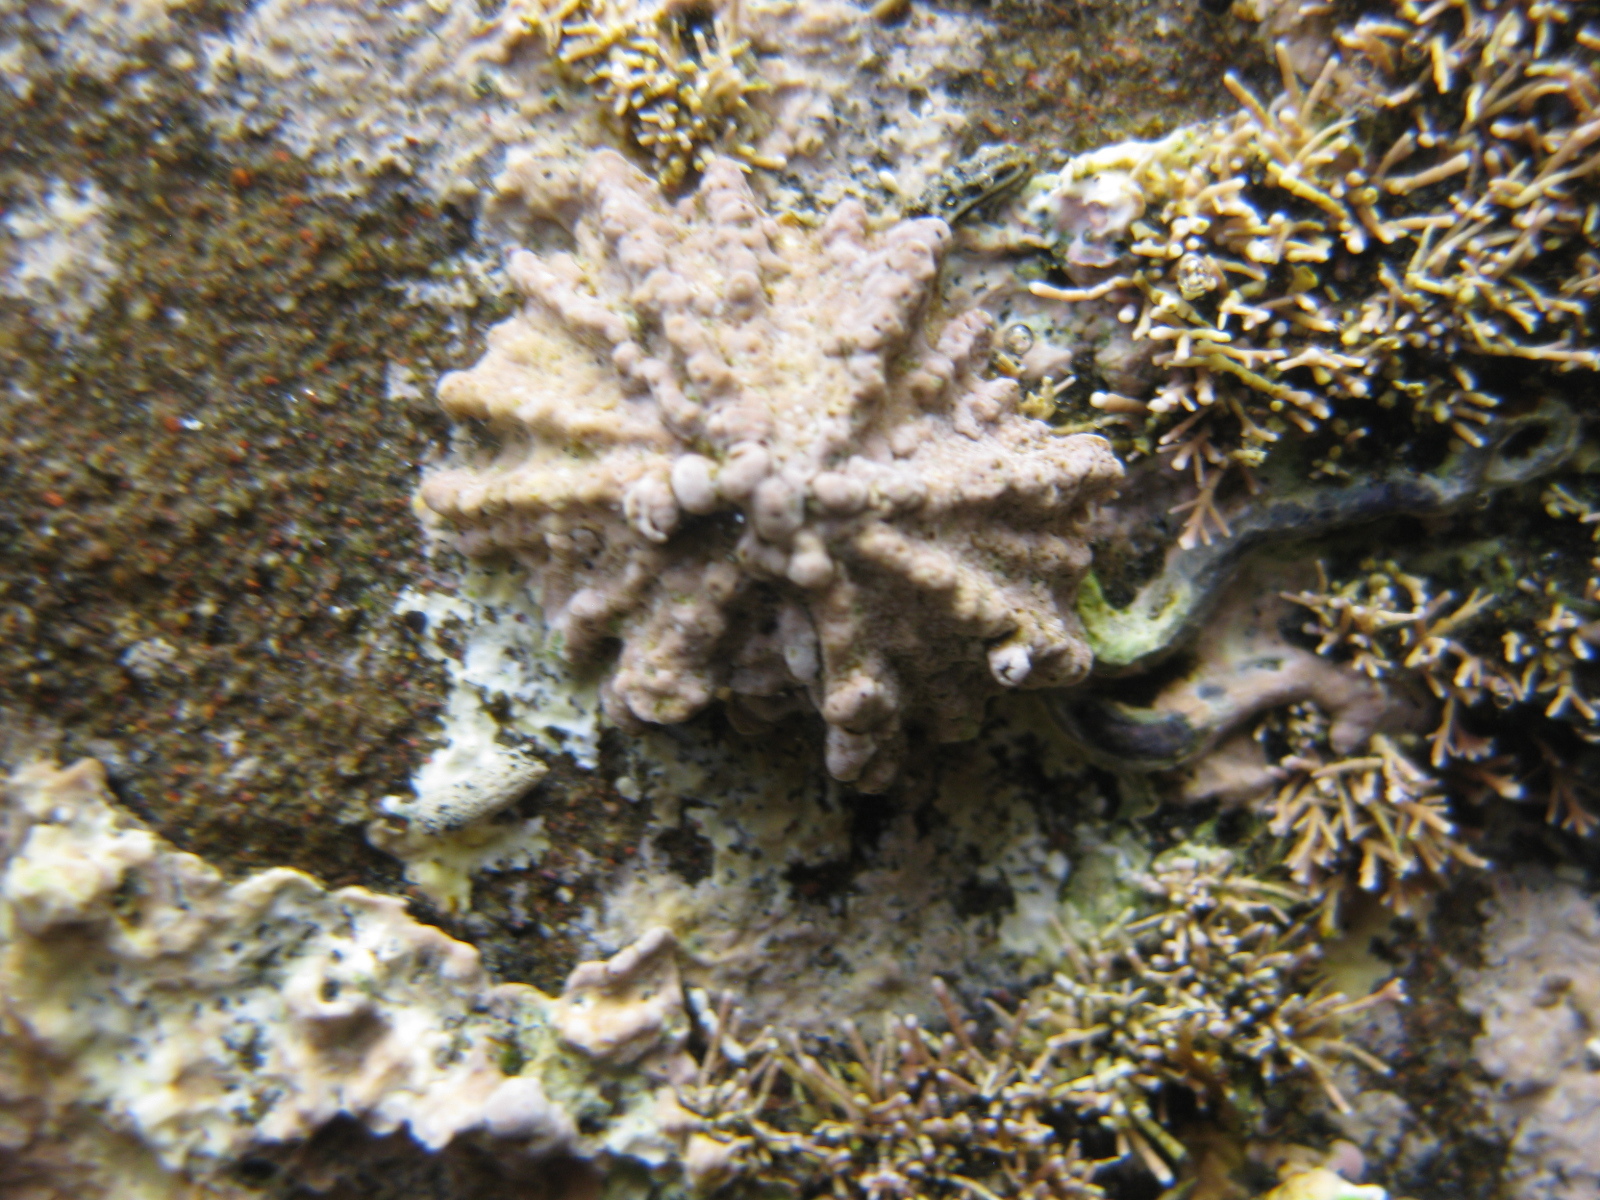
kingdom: Animalia
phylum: Mollusca
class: Gastropoda
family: Lottiidae
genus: Patelloida
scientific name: Patelloida corticata
